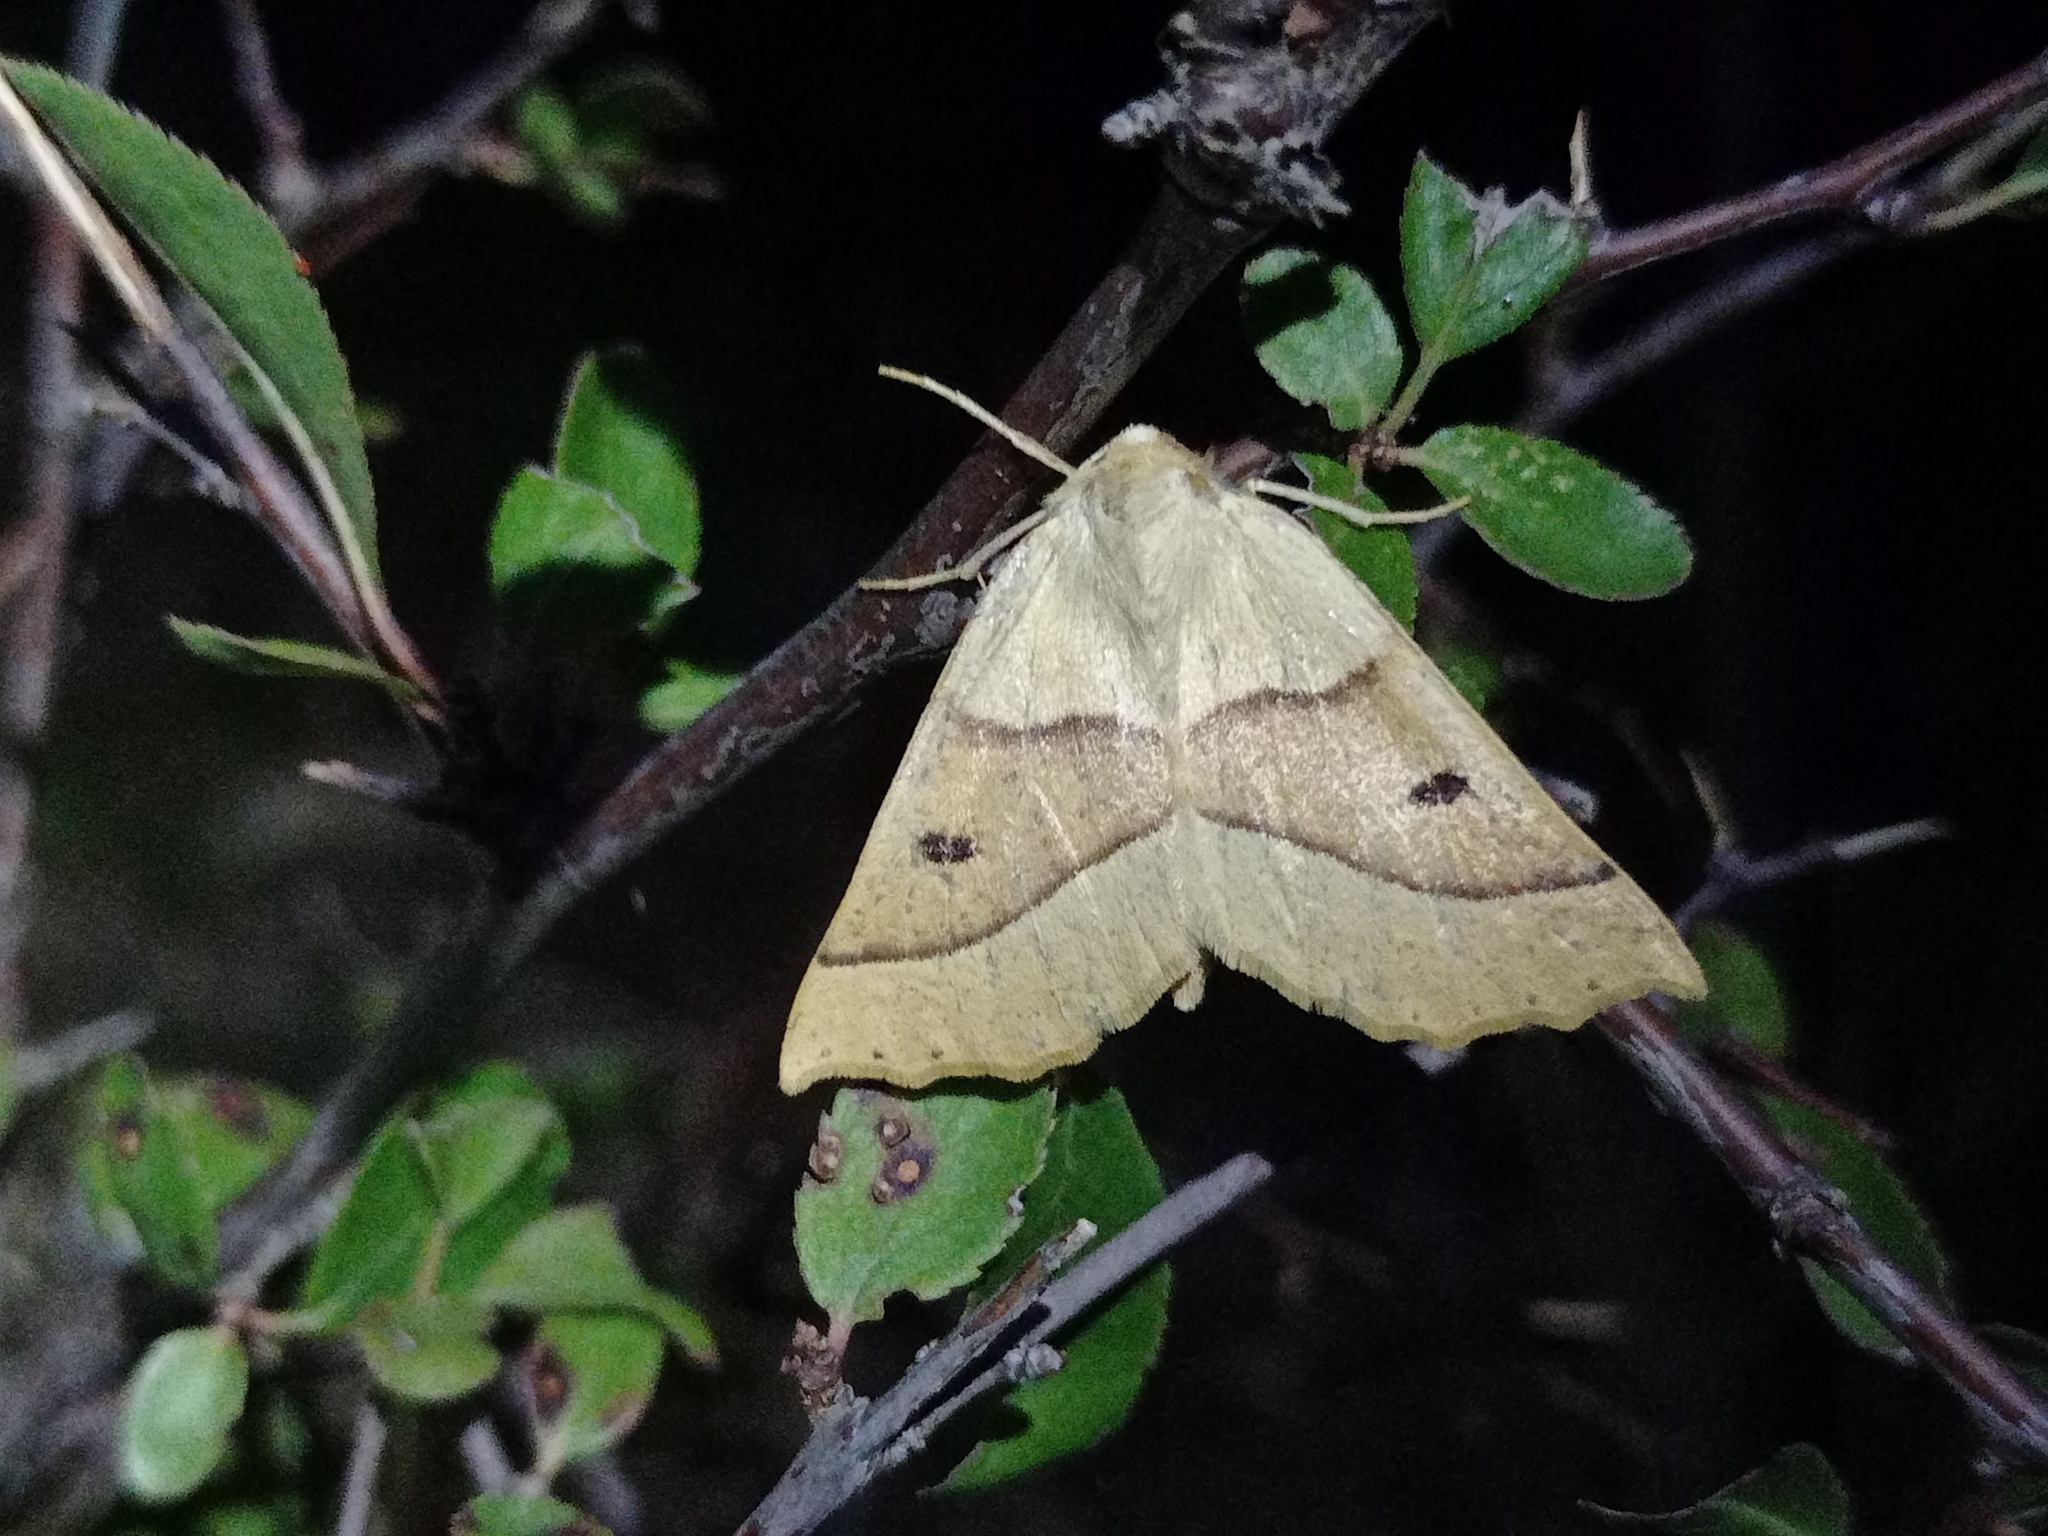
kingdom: Animalia
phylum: Arthropoda
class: Insecta
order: Lepidoptera
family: Geometridae
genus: Crocallis
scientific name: Crocallis elinguaria
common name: Scalloped oak
